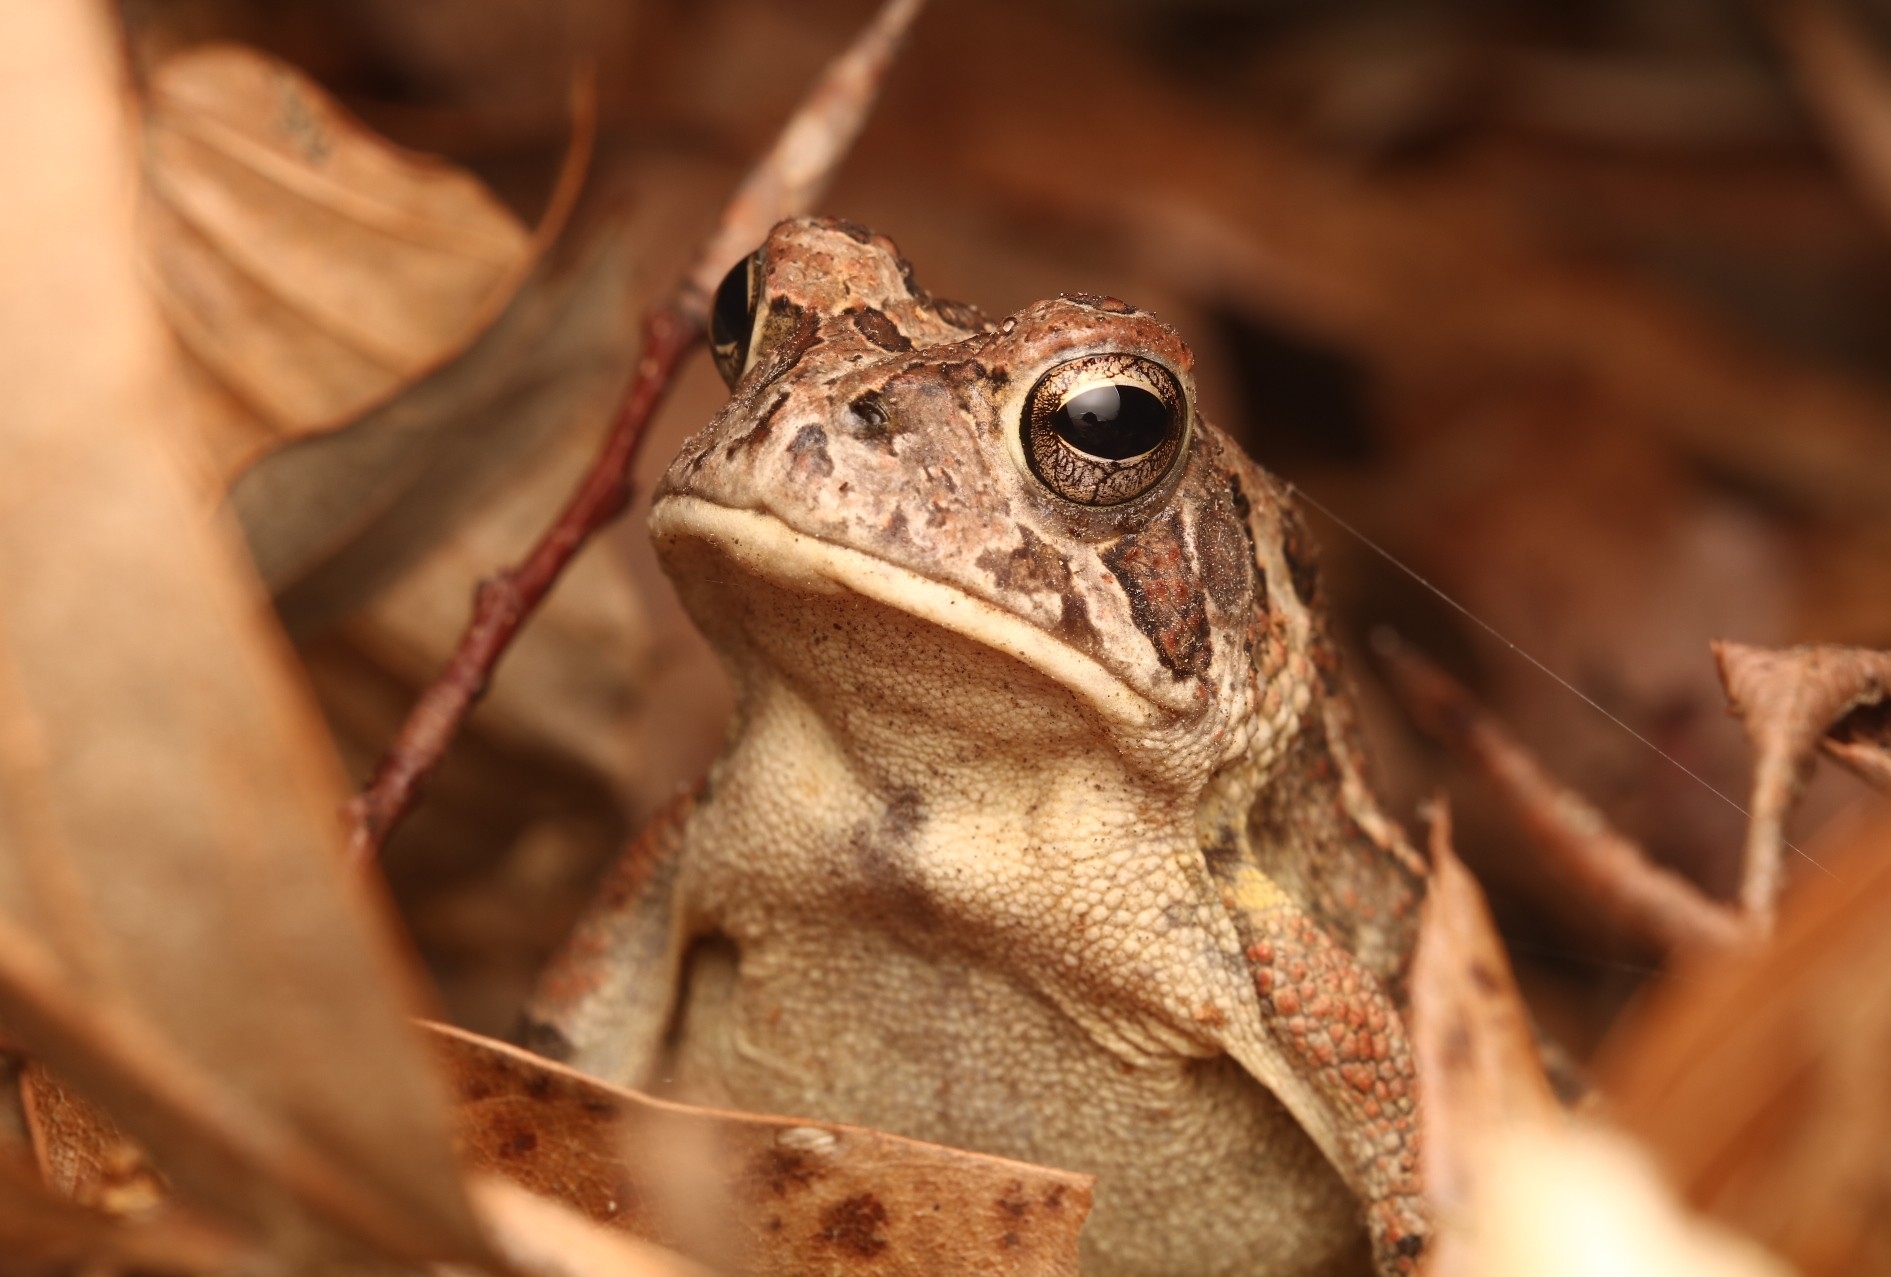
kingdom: Animalia
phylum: Chordata
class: Amphibia
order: Anura
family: Bufonidae
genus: Anaxyrus
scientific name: Anaxyrus fowleri
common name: Fowler's toad
